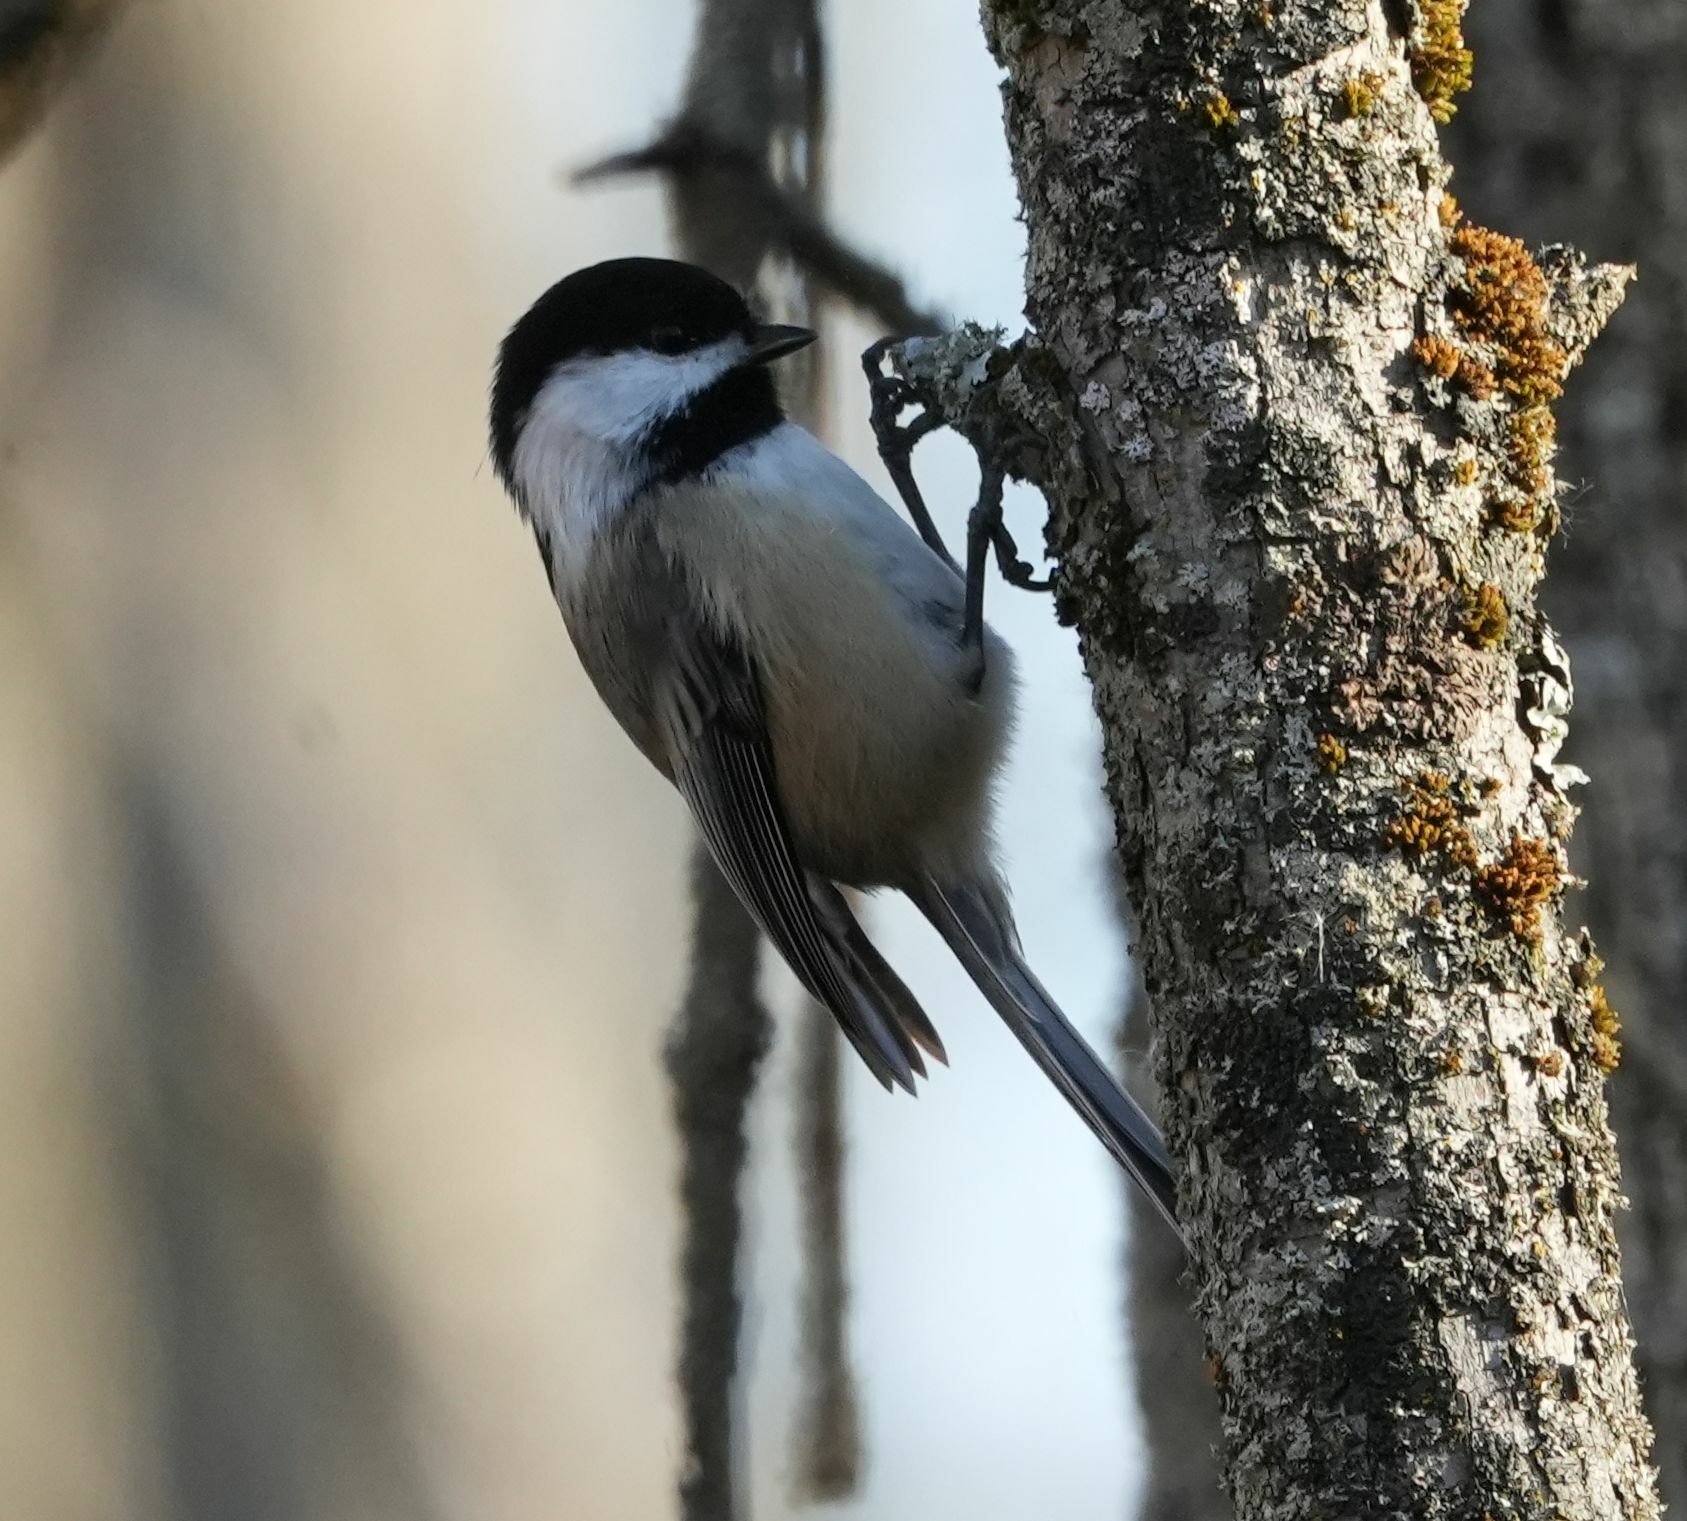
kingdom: Animalia
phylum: Chordata
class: Aves
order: Passeriformes
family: Paridae
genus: Poecile
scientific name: Poecile atricapillus
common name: Black-capped chickadee
